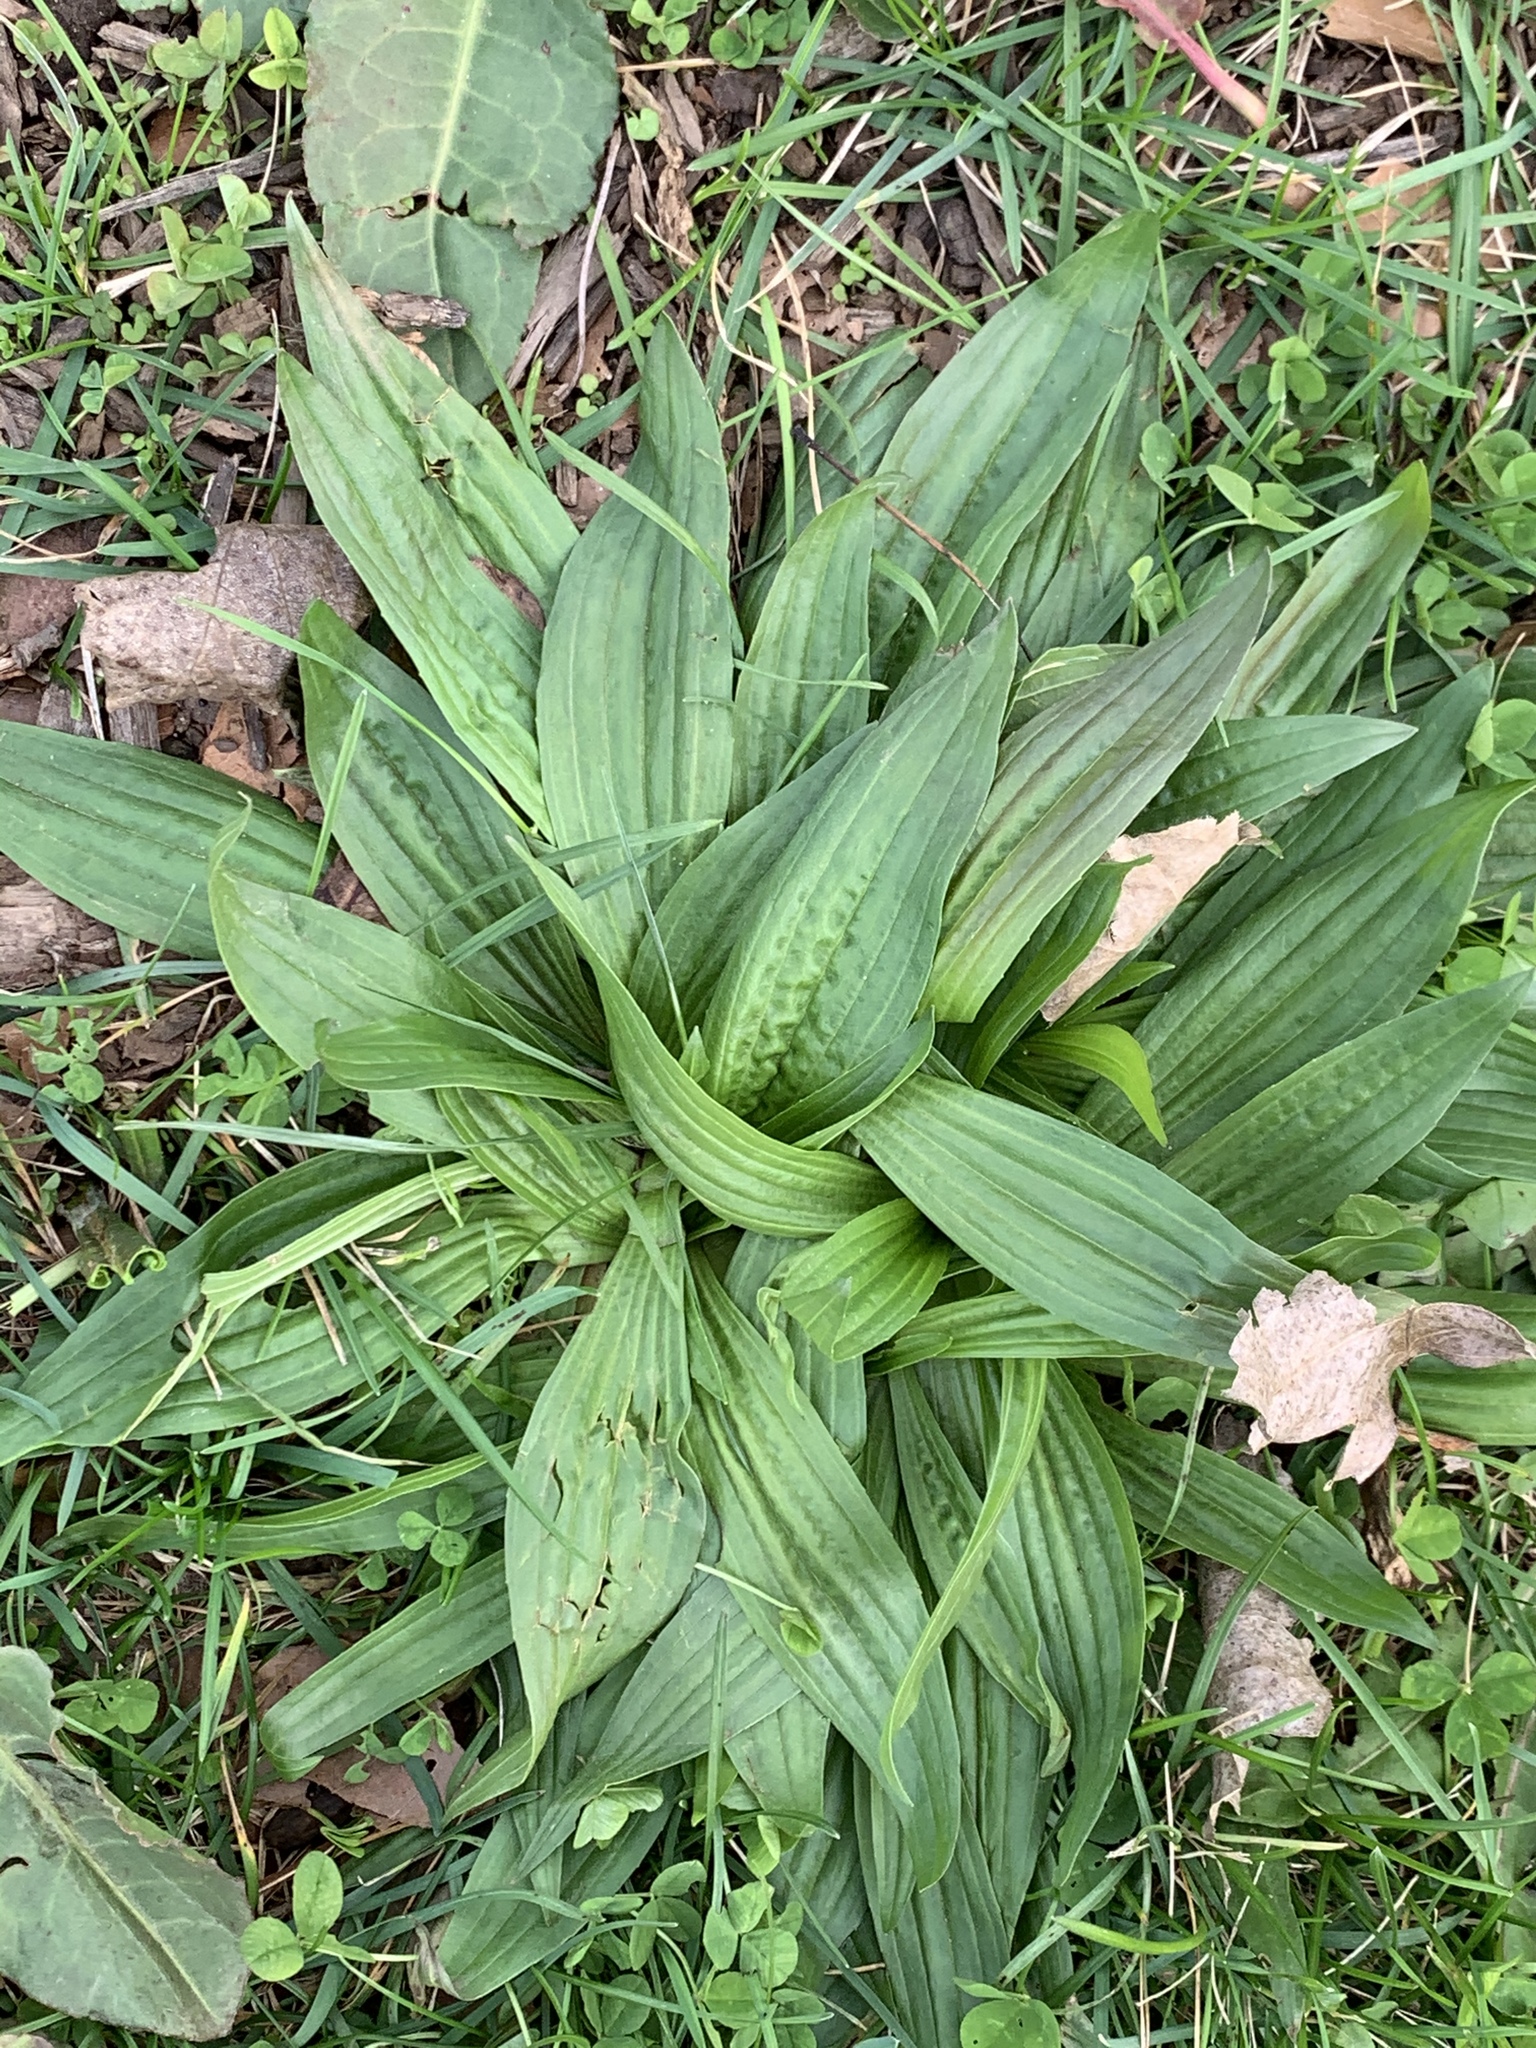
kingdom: Plantae
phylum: Tracheophyta
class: Magnoliopsida
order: Lamiales
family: Plantaginaceae
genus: Plantago
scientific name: Plantago lanceolata
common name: Ribwort plantain
